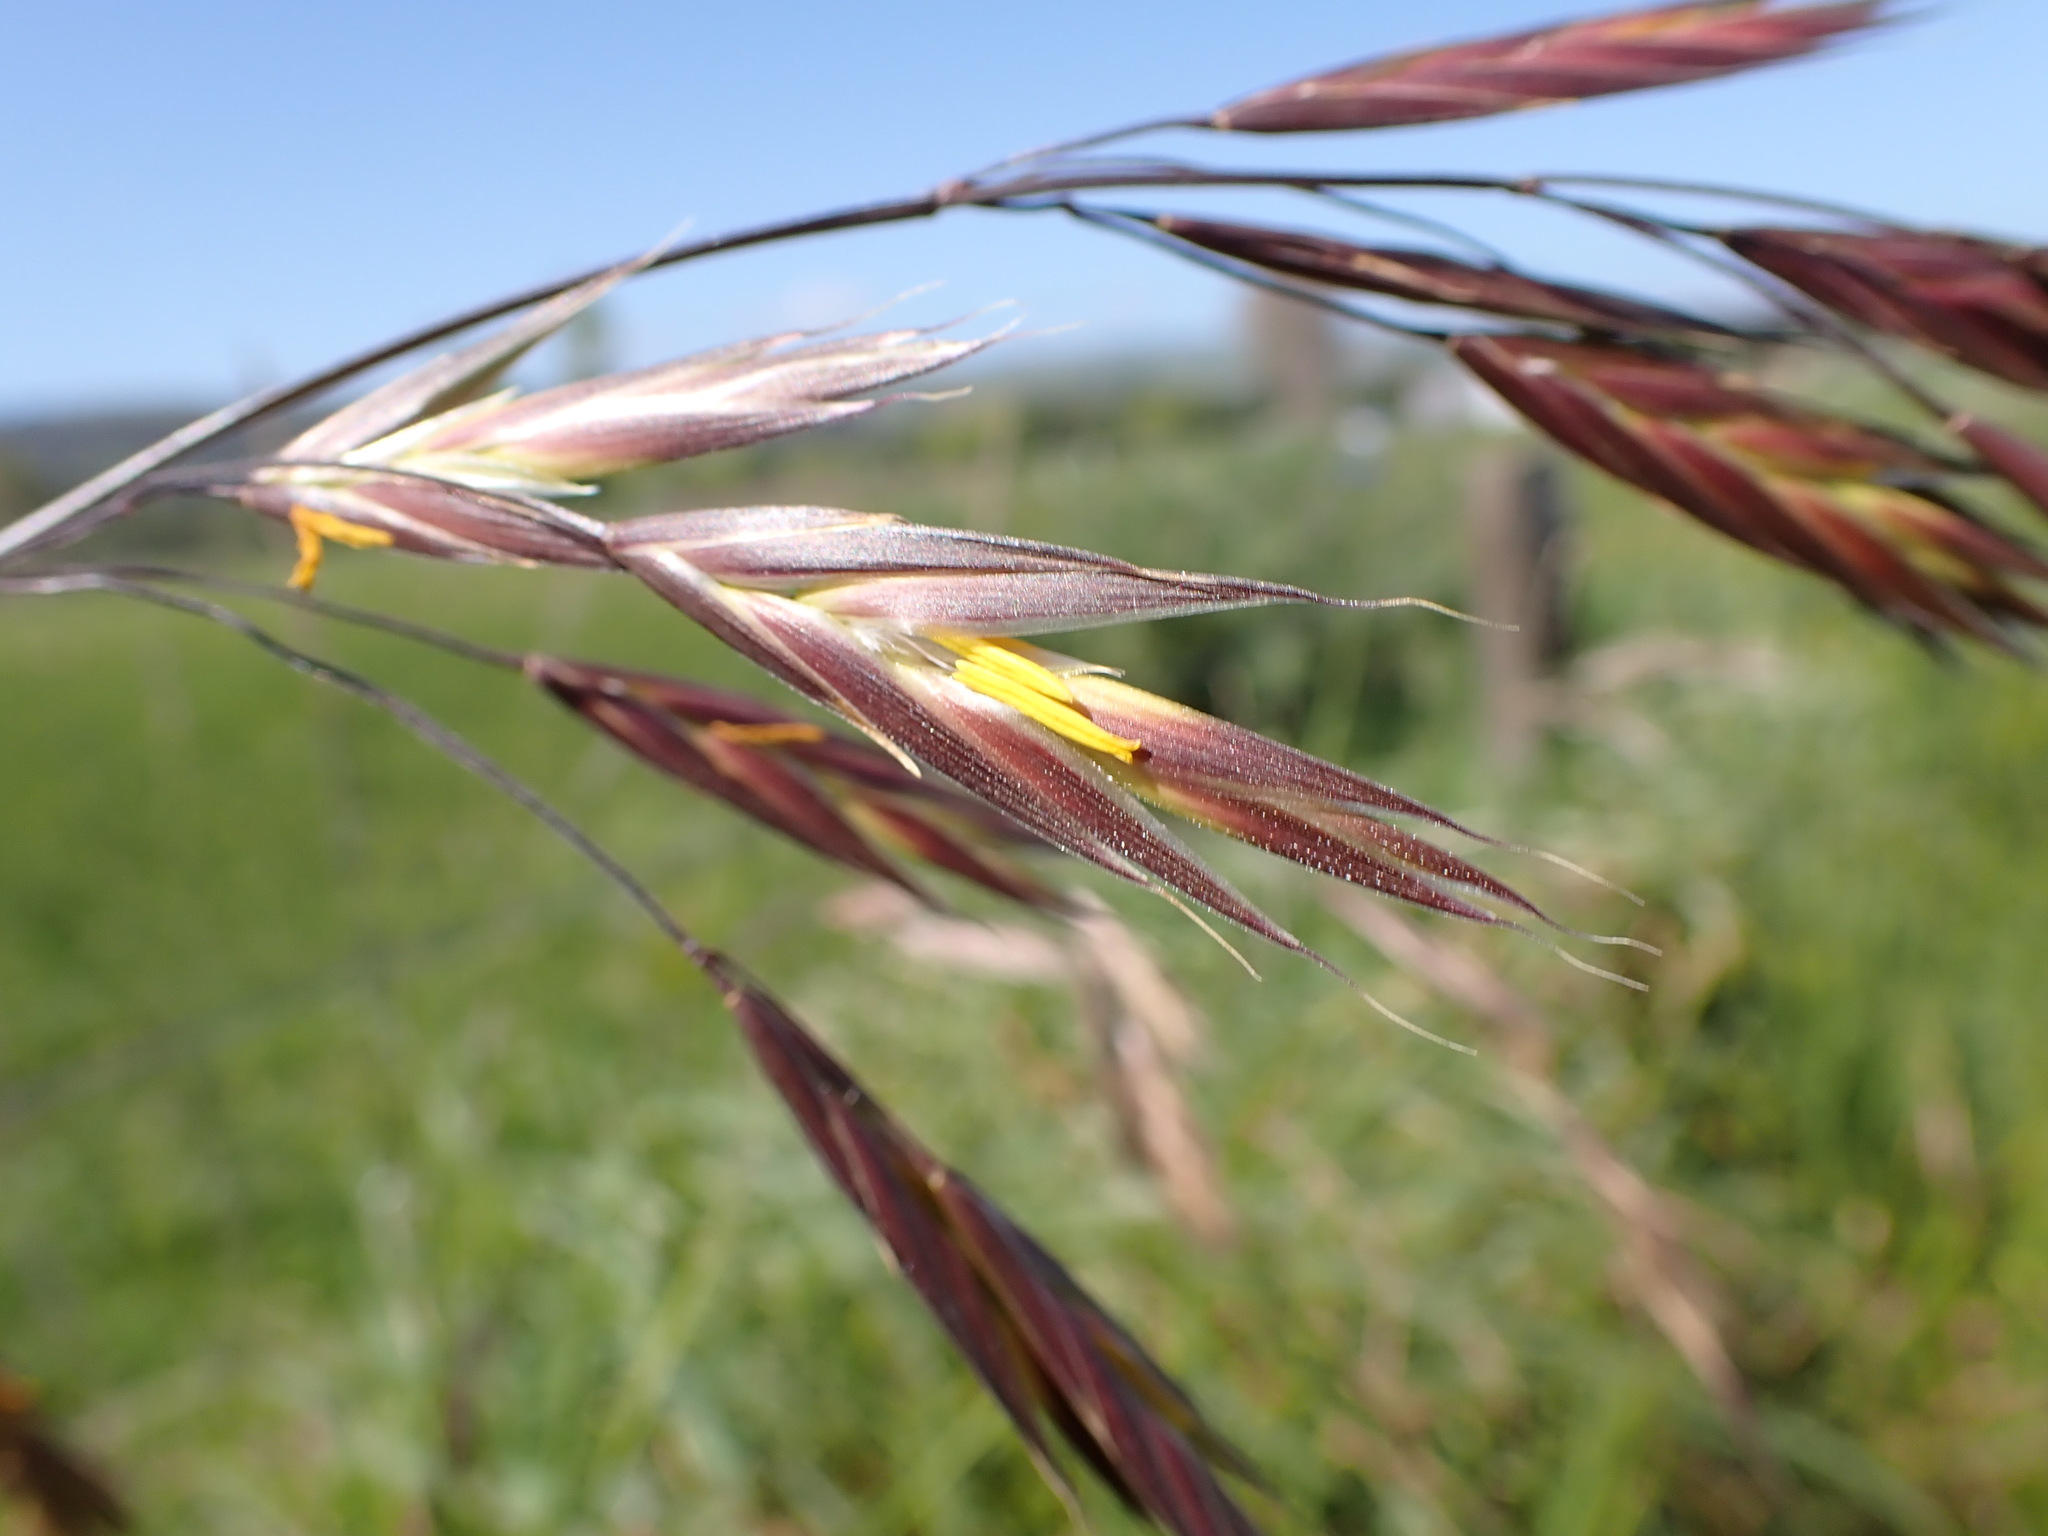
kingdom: Plantae
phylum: Tracheophyta
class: Liliopsida
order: Poales
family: Poaceae
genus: Bromus
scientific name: Bromus catharticus
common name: Rescuegrass
